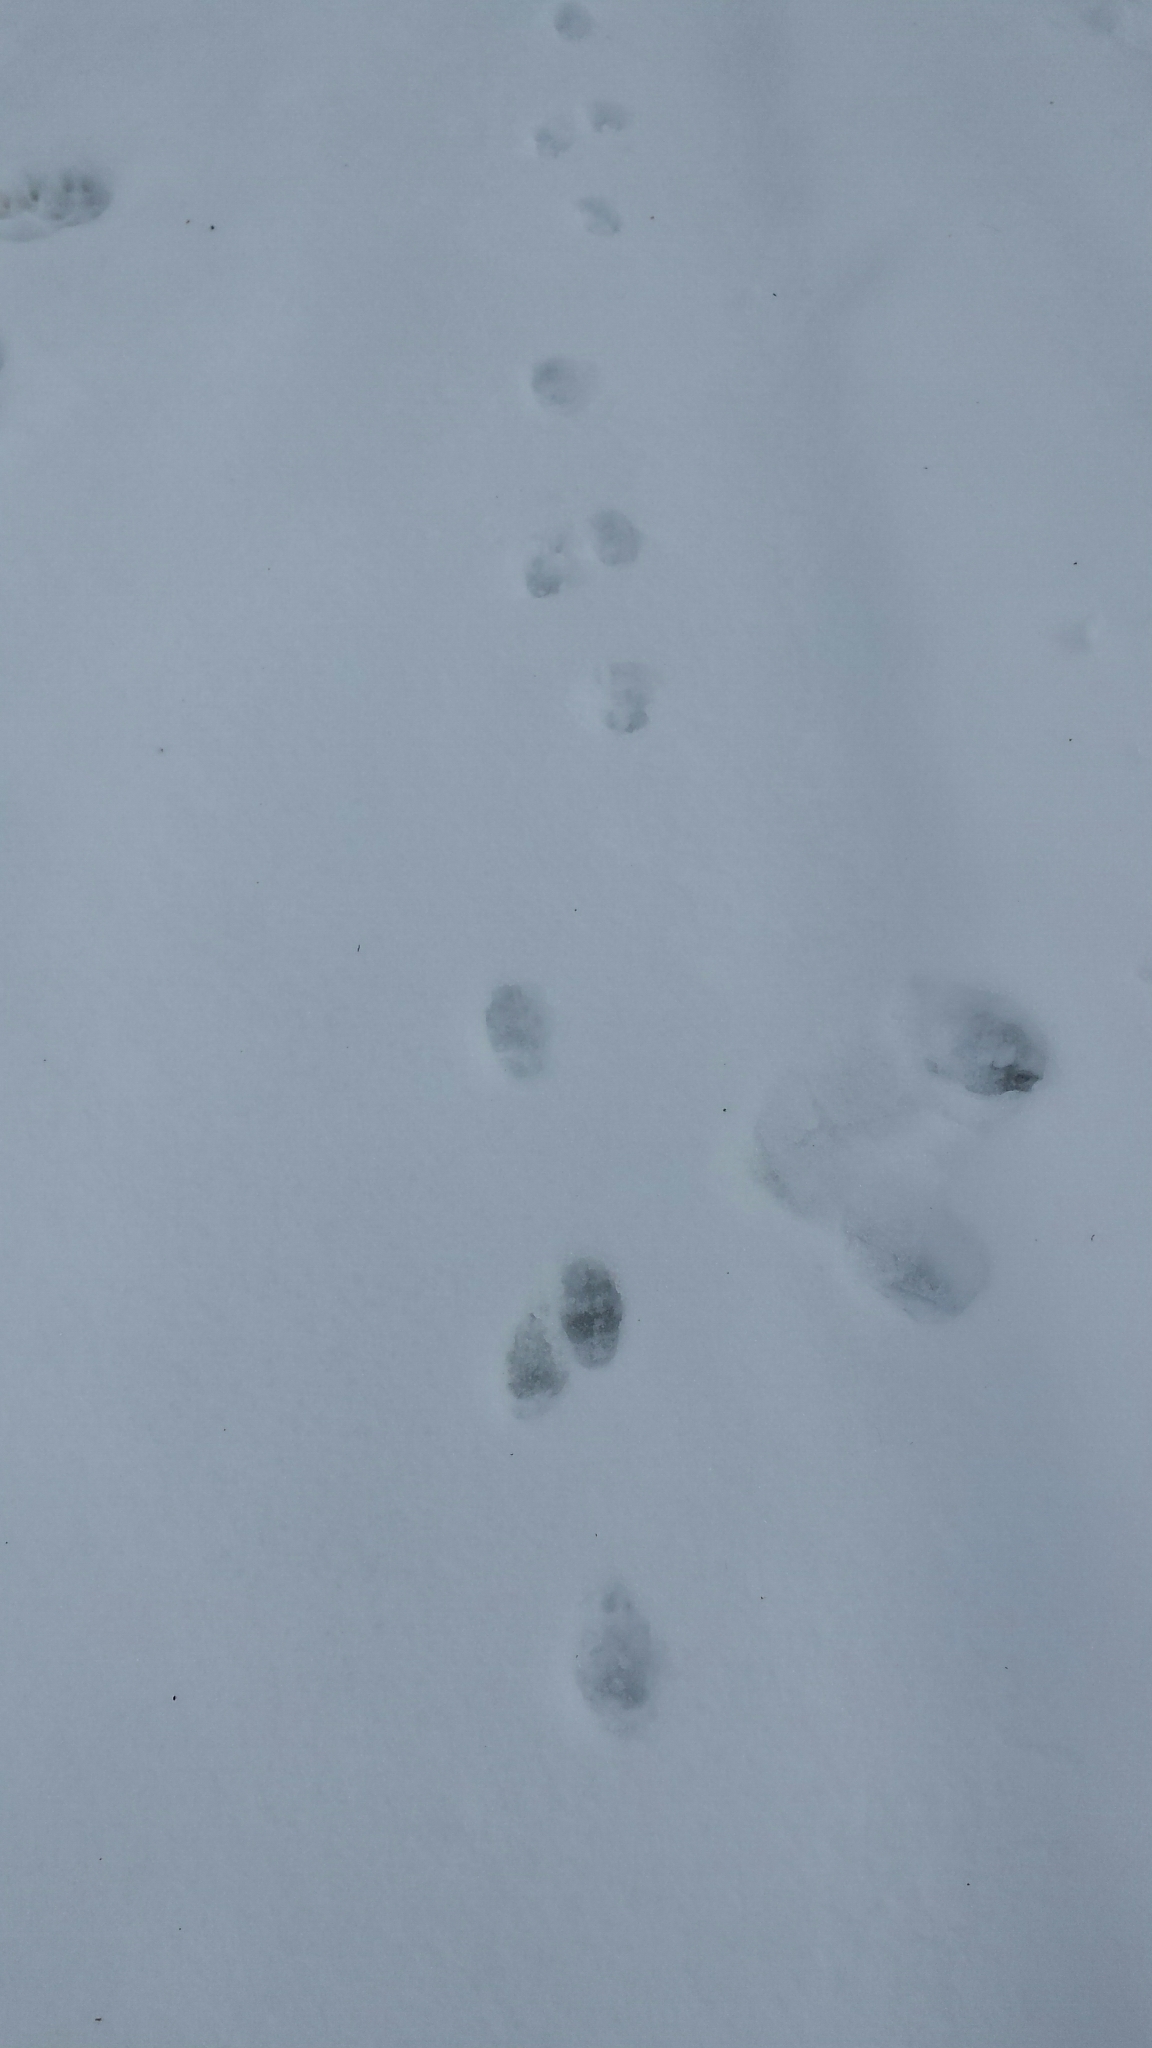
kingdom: Animalia
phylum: Chordata
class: Mammalia
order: Carnivora
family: Mephitidae
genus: Mephitis
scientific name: Mephitis mephitis
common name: Striped skunk
